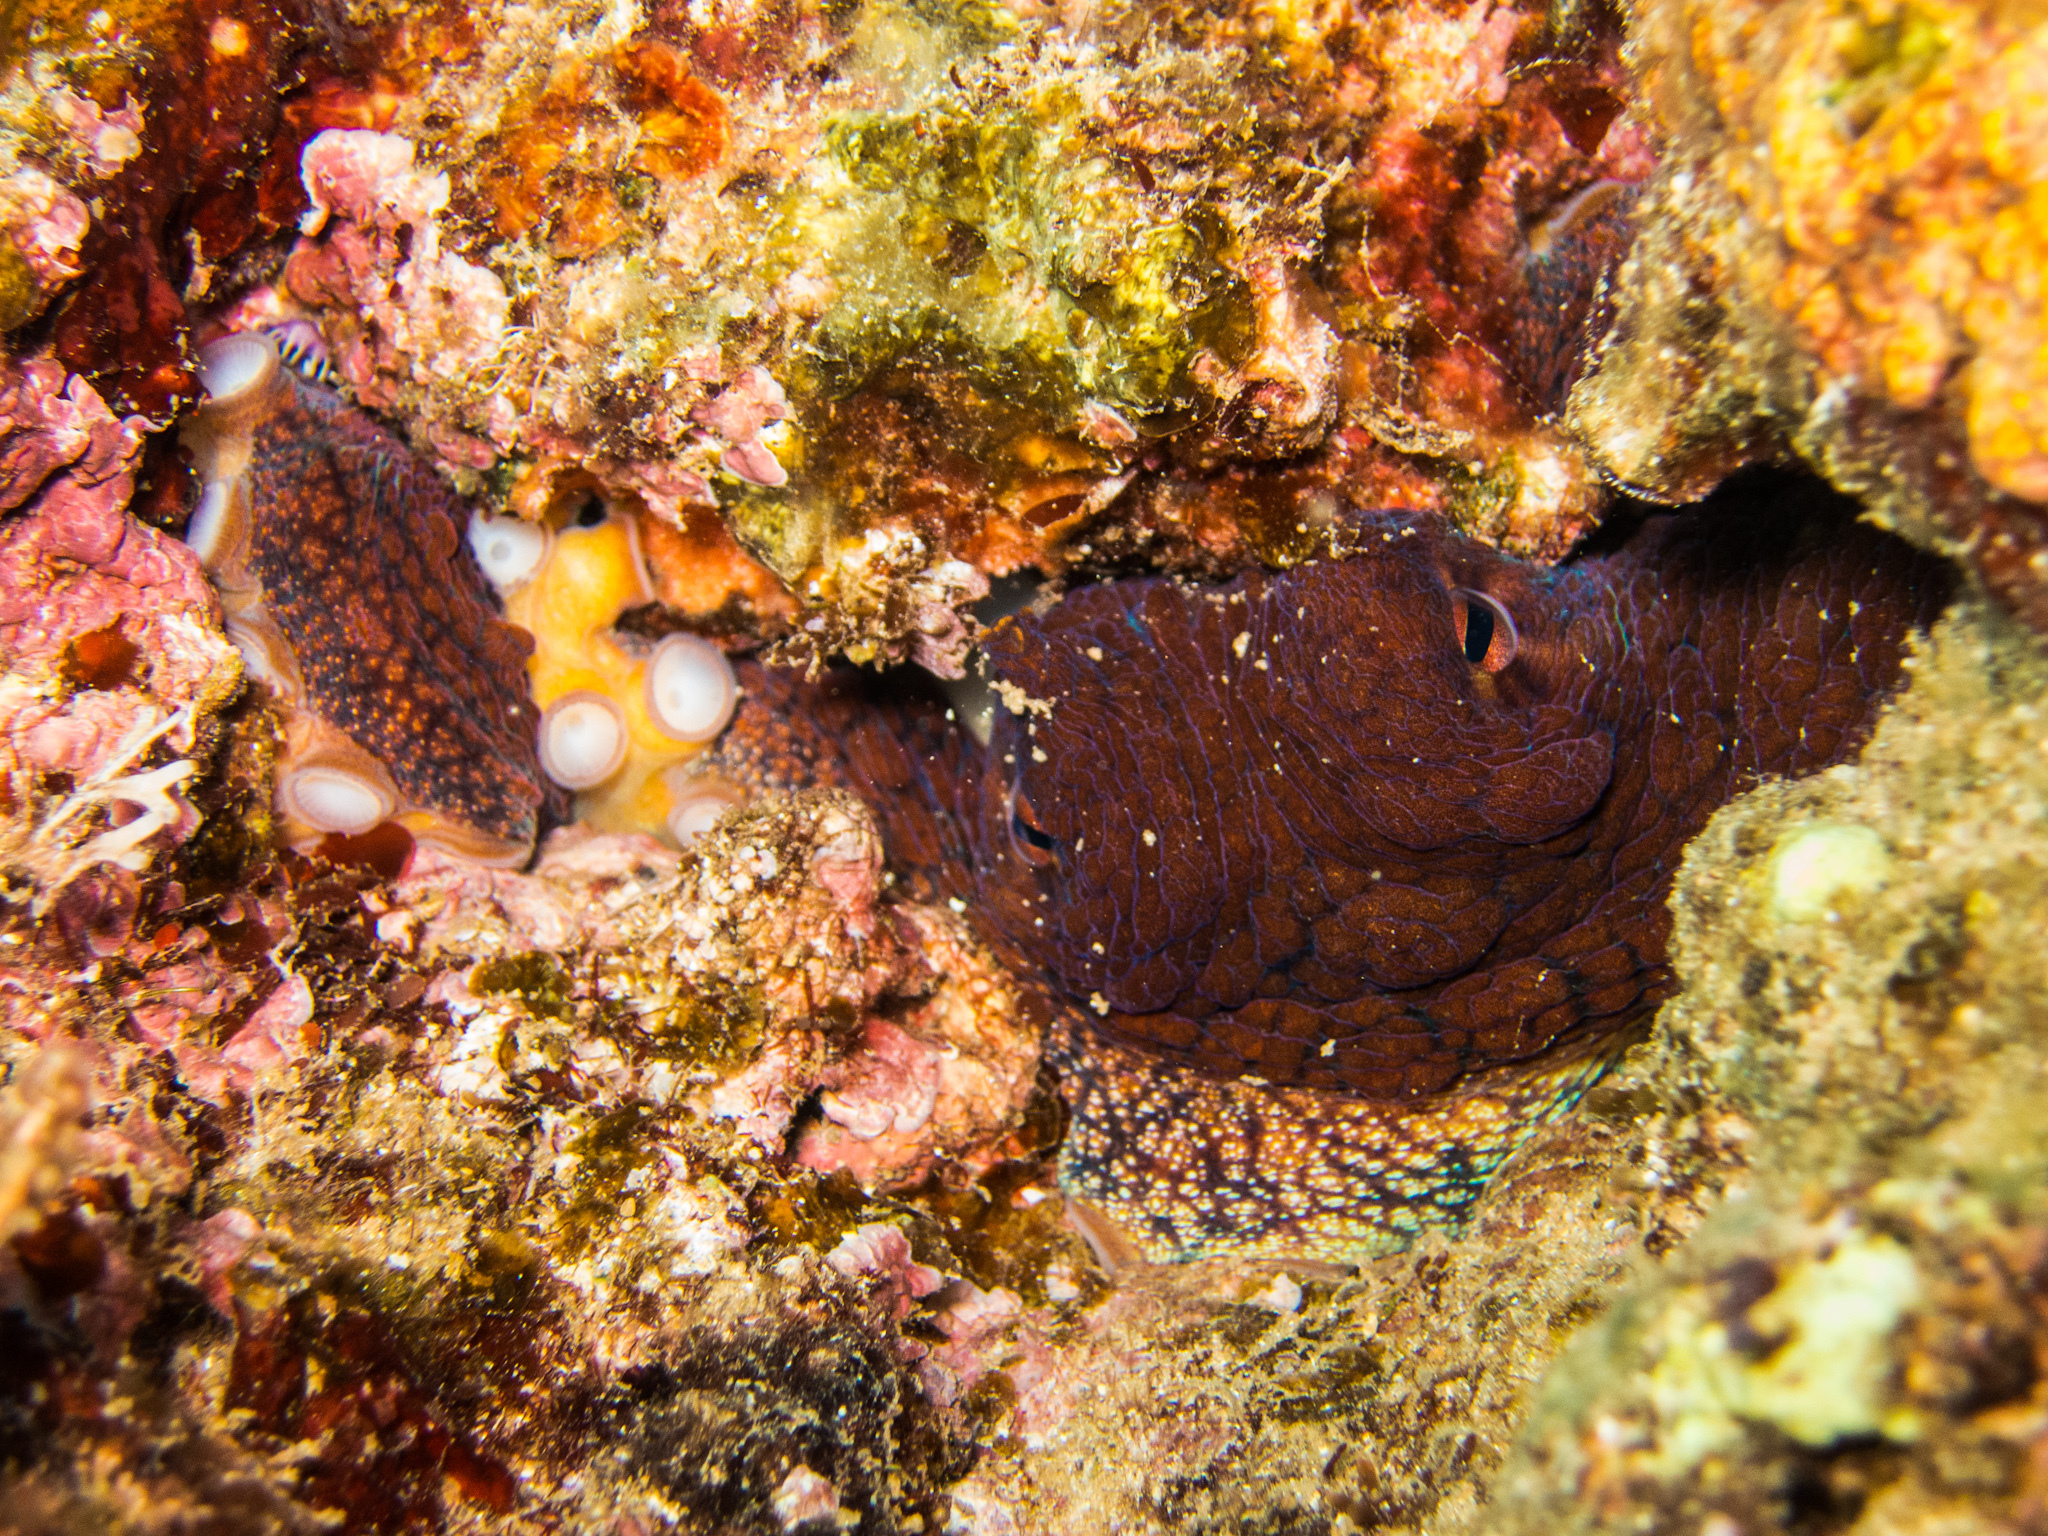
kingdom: Animalia
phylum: Mollusca
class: Cephalopoda
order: Octopoda
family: Octopodidae
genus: Octopus
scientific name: Octopus cyanea
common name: Cyane's octopus
